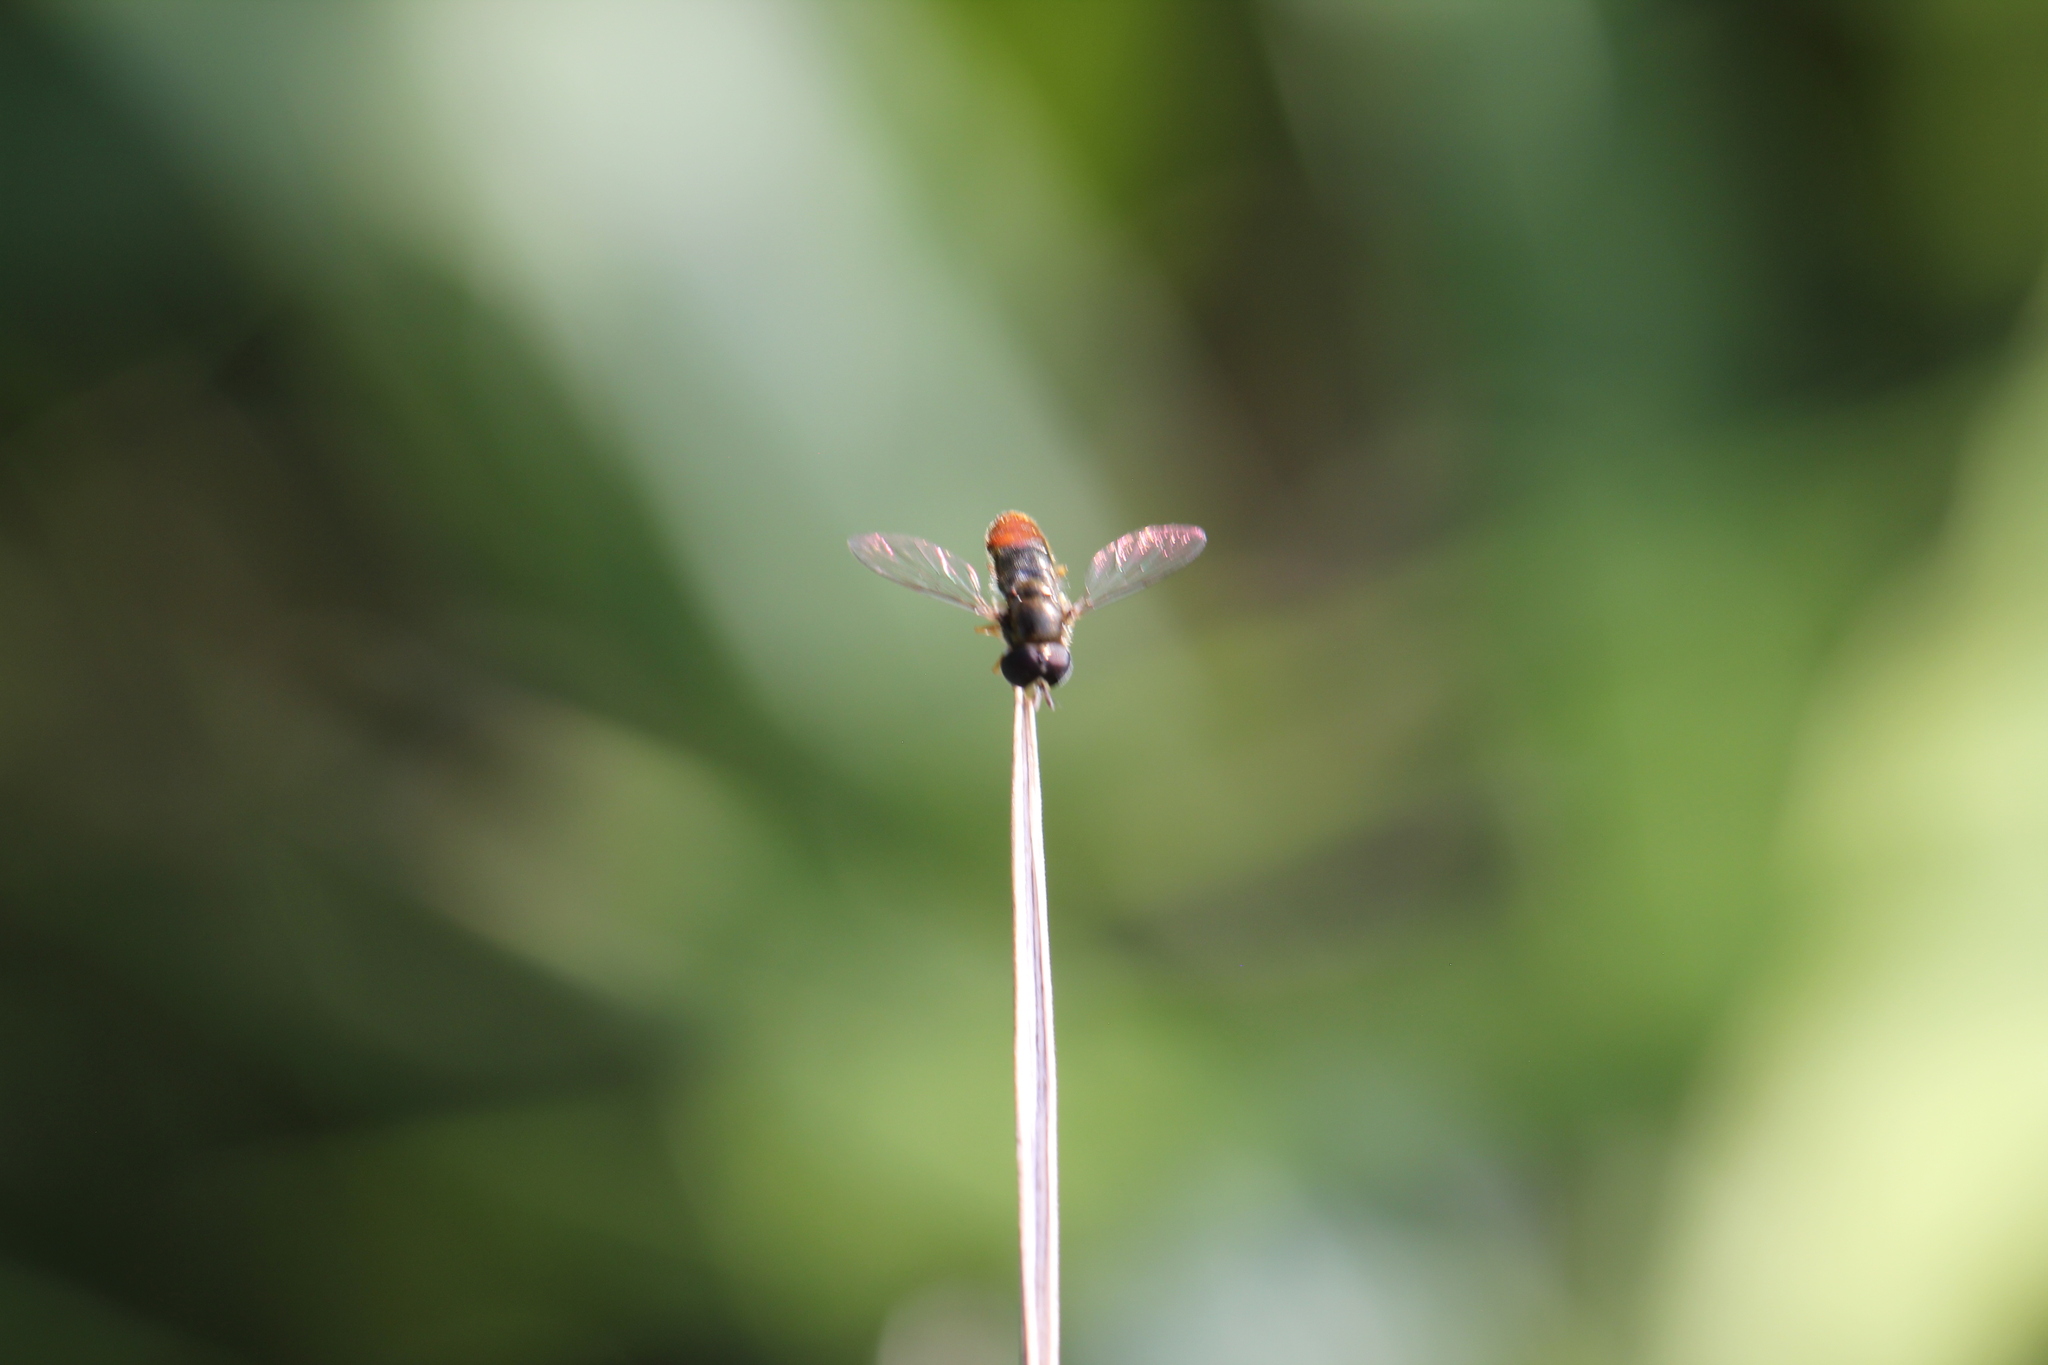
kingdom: Animalia
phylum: Arthropoda
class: Insecta
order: Diptera
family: Syrphidae
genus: Paragus
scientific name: Paragus haemorrhous
